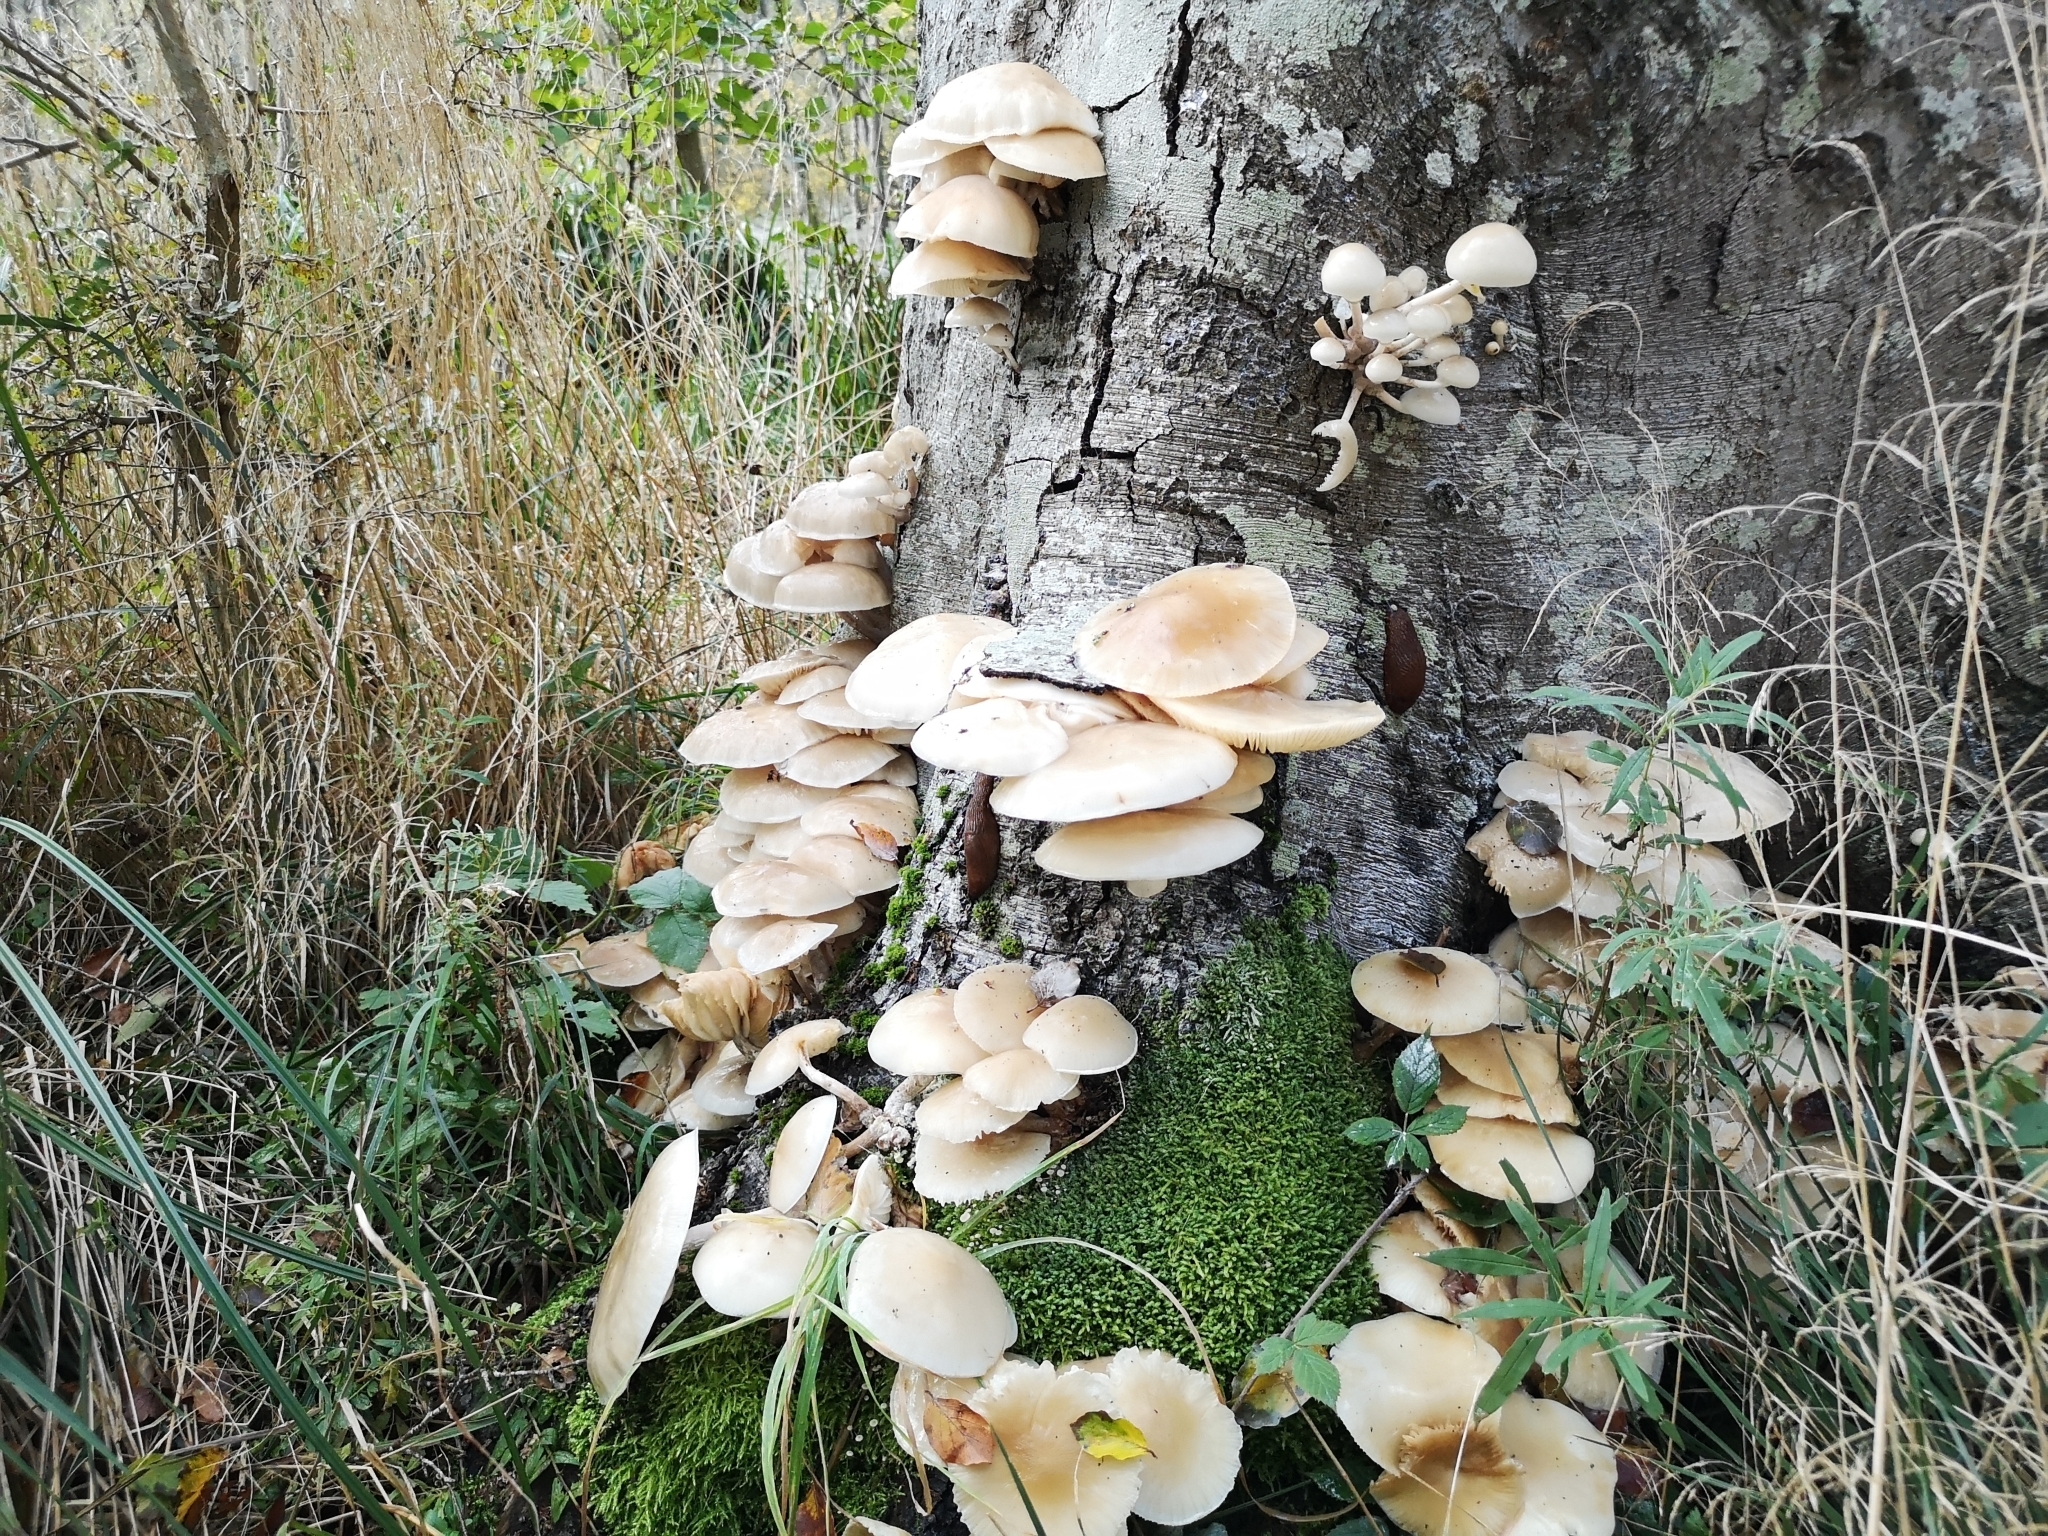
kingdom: Fungi
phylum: Basidiomycota
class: Agaricomycetes
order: Agaricales
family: Physalacriaceae
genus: Mucidula
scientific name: Mucidula mucida
